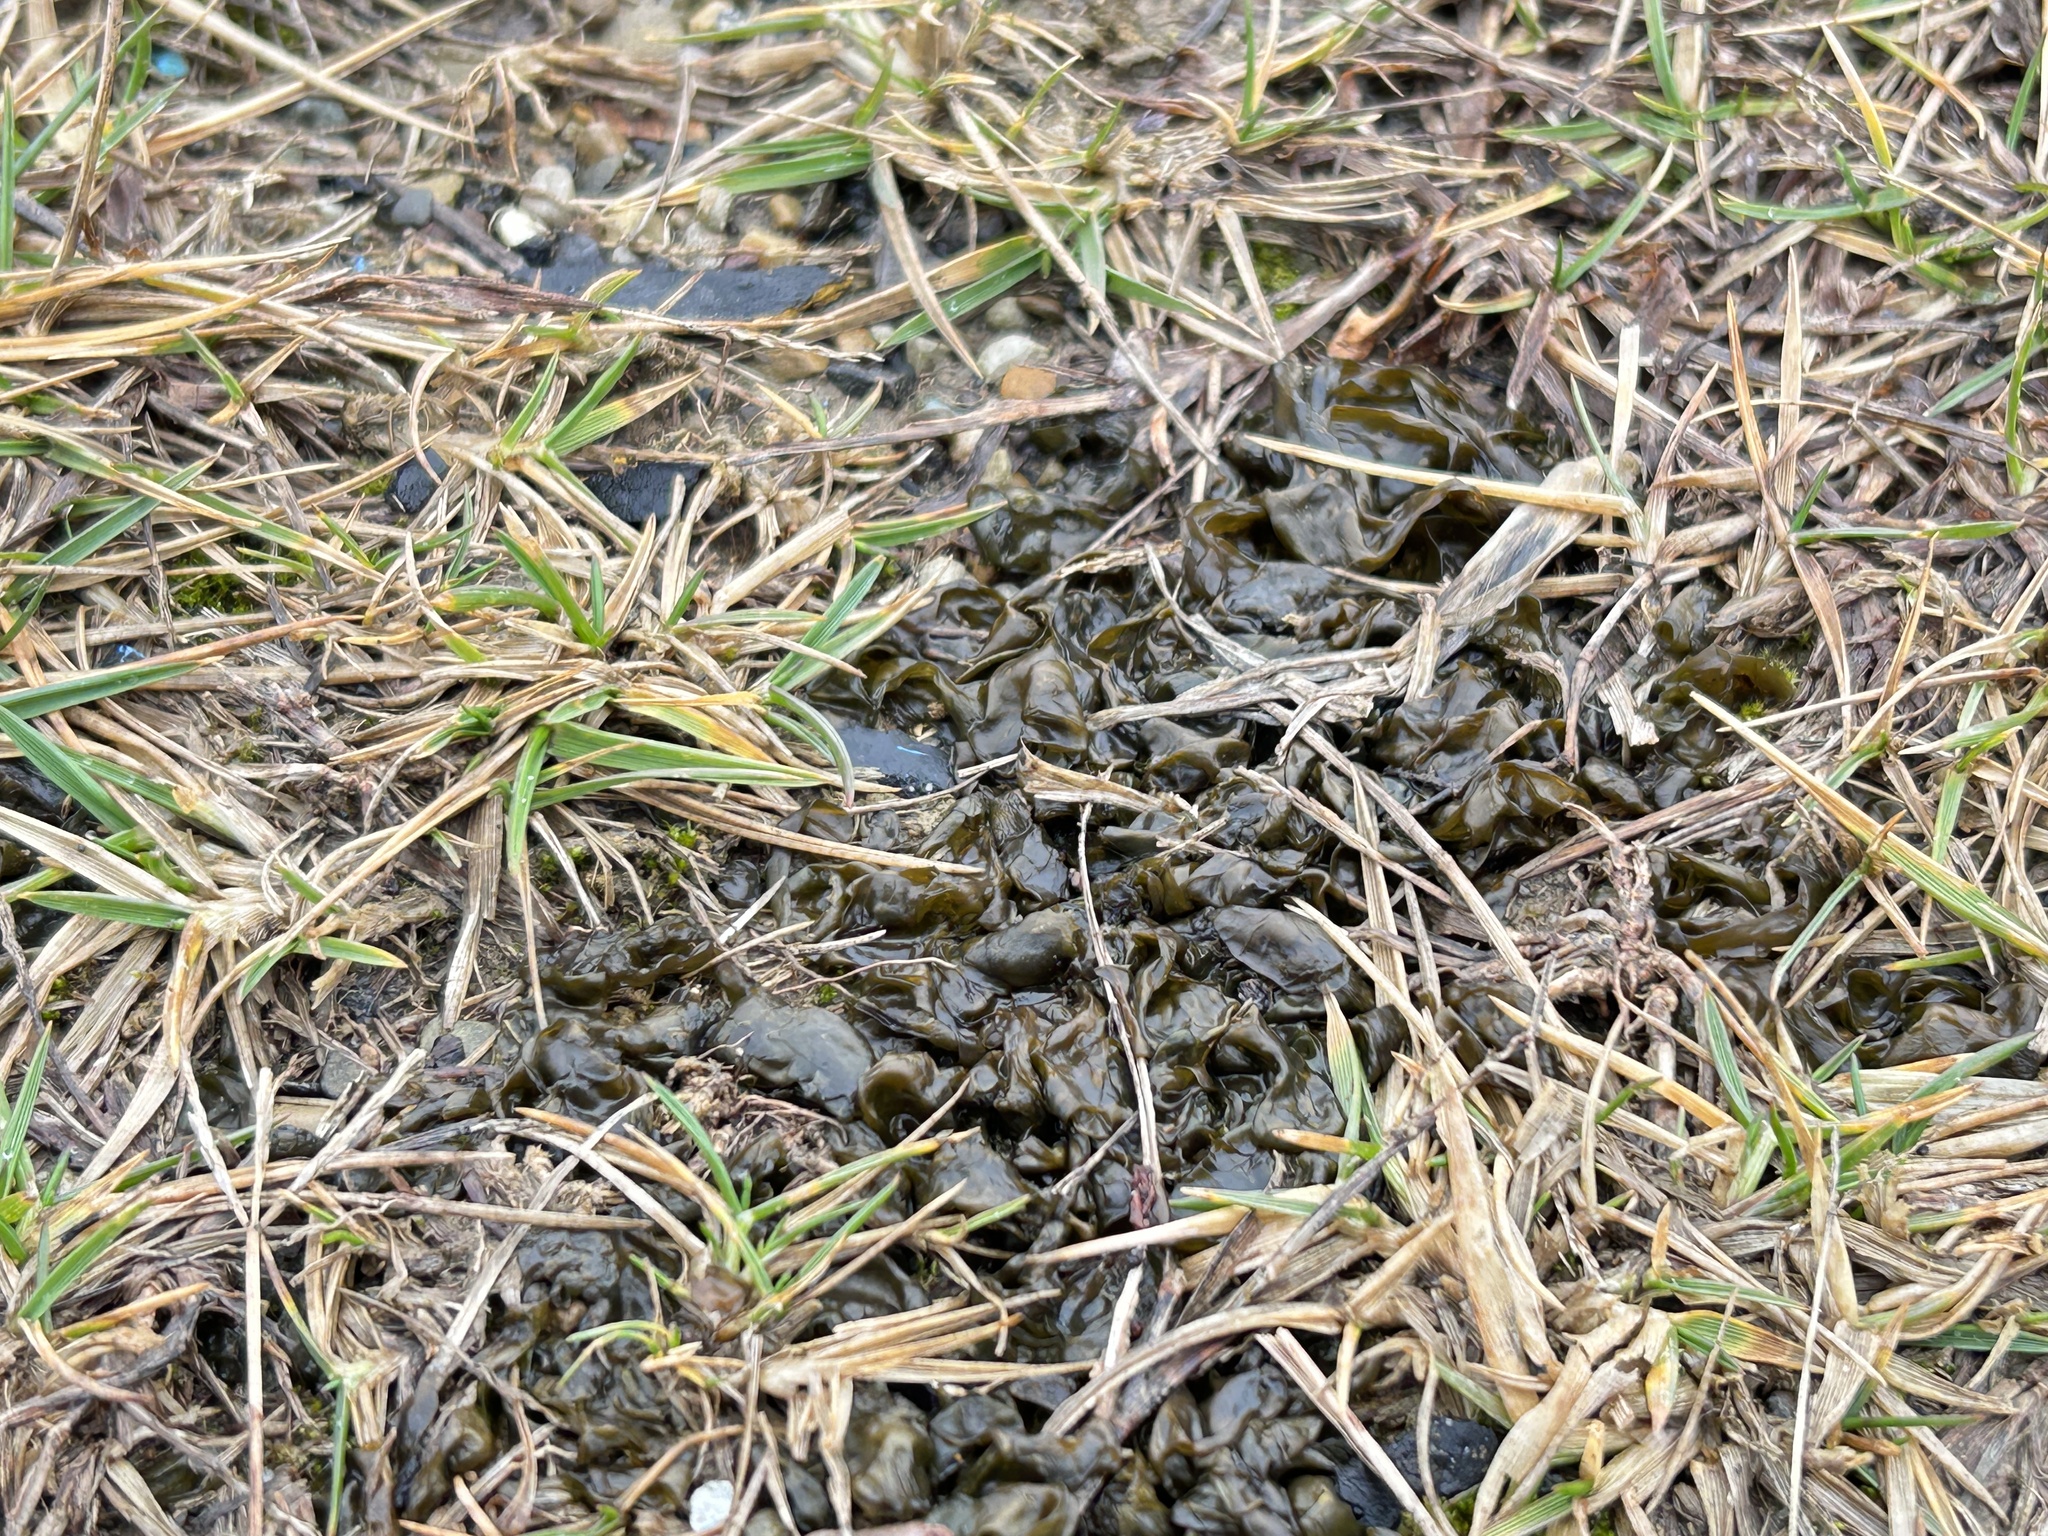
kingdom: Bacteria
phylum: Cyanobacteria
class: Cyanobacteriia
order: Cyanobacteriales
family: Nostocaceae
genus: Nostoc
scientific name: Nostoc commune
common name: Star jelly
